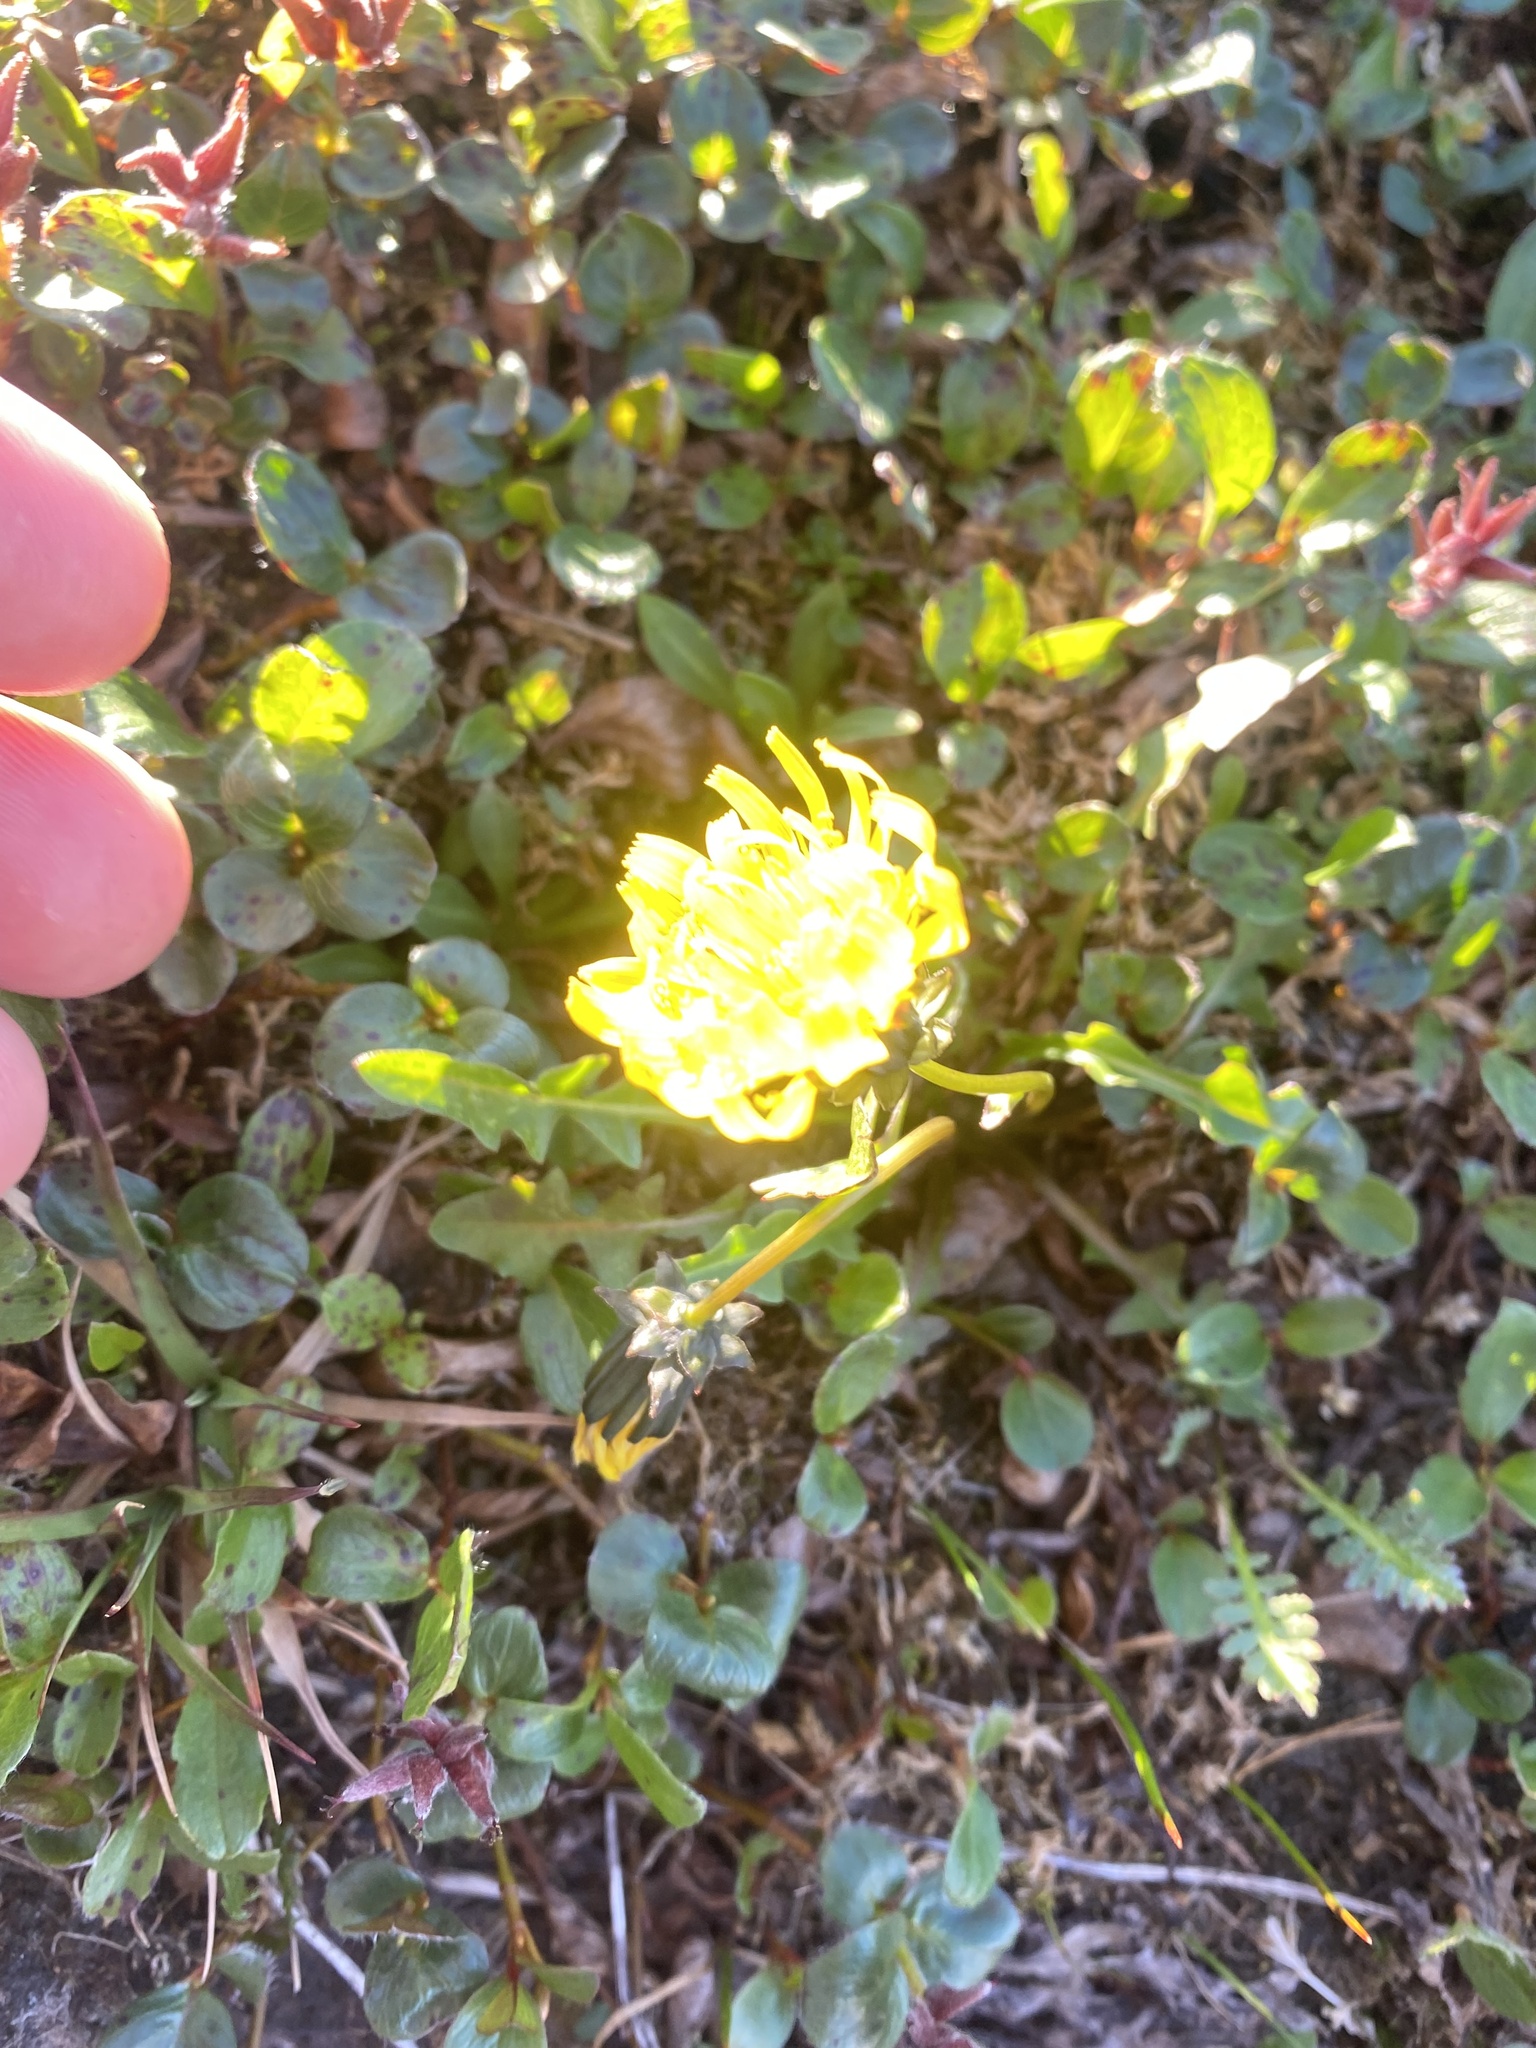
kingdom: Plantae
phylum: Tracheophyta
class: Magnoliopsida
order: Asterales
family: Asteraceae
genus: Taraxacum
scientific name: Taraxacum glabrum
